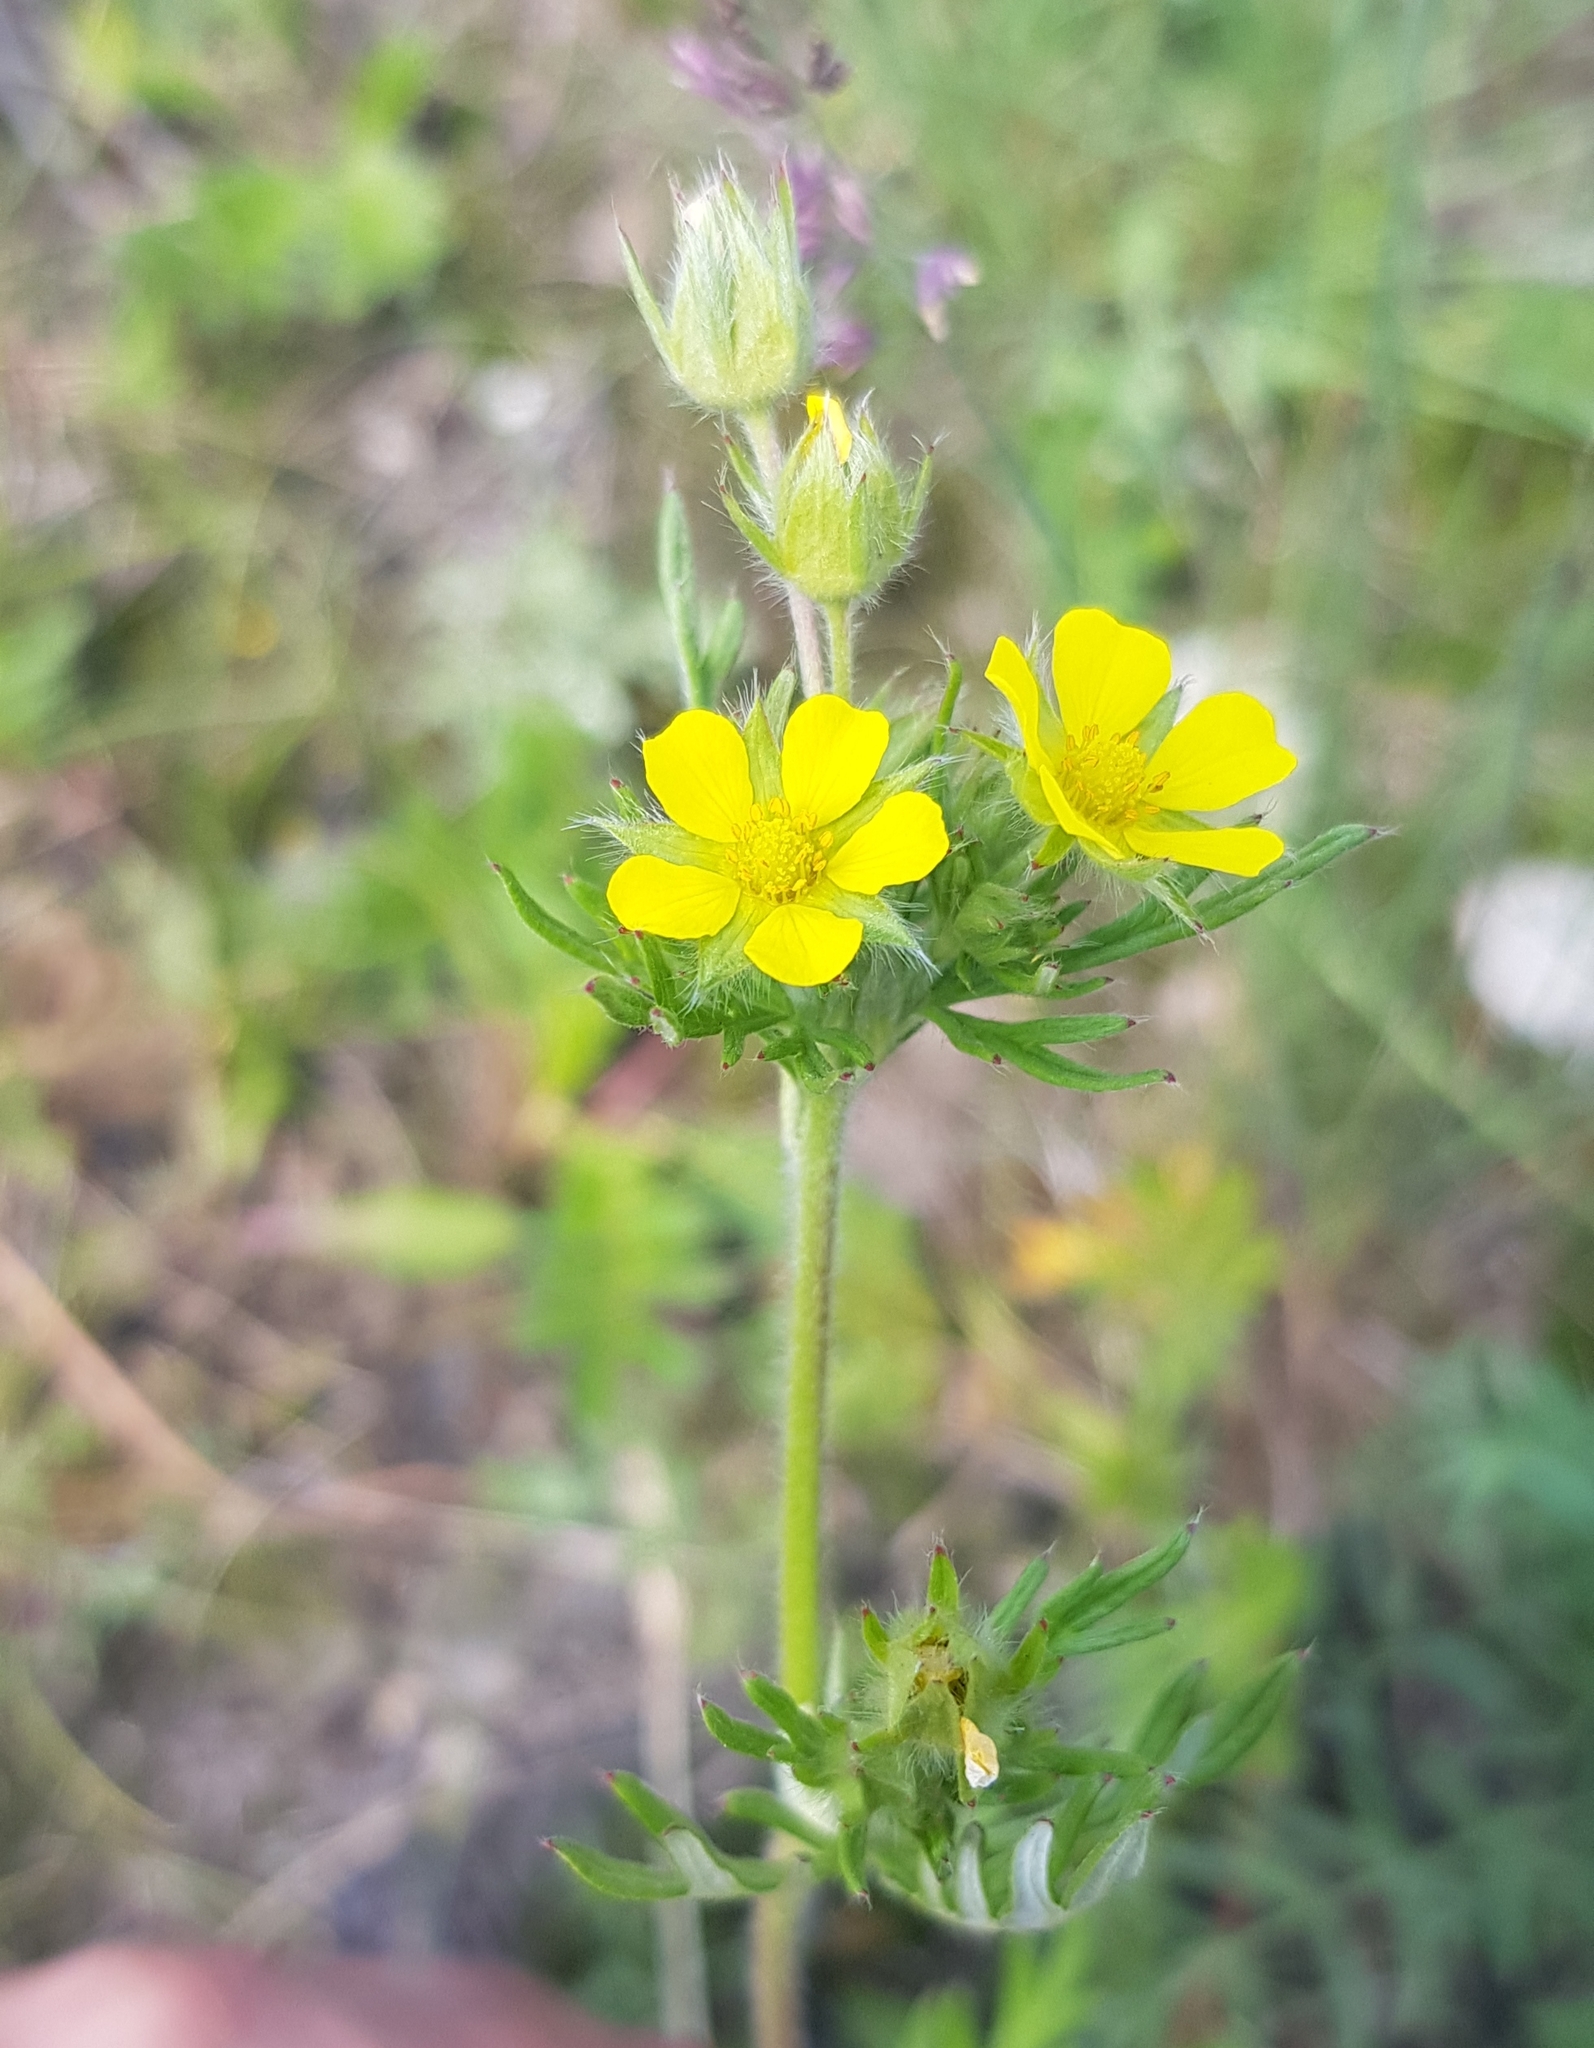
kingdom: Plantae
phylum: Tracheophyta
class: Magnoliopsida
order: Rosales
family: Rosaceae
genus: Potentilla
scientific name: Potentilla tanacetifolia
